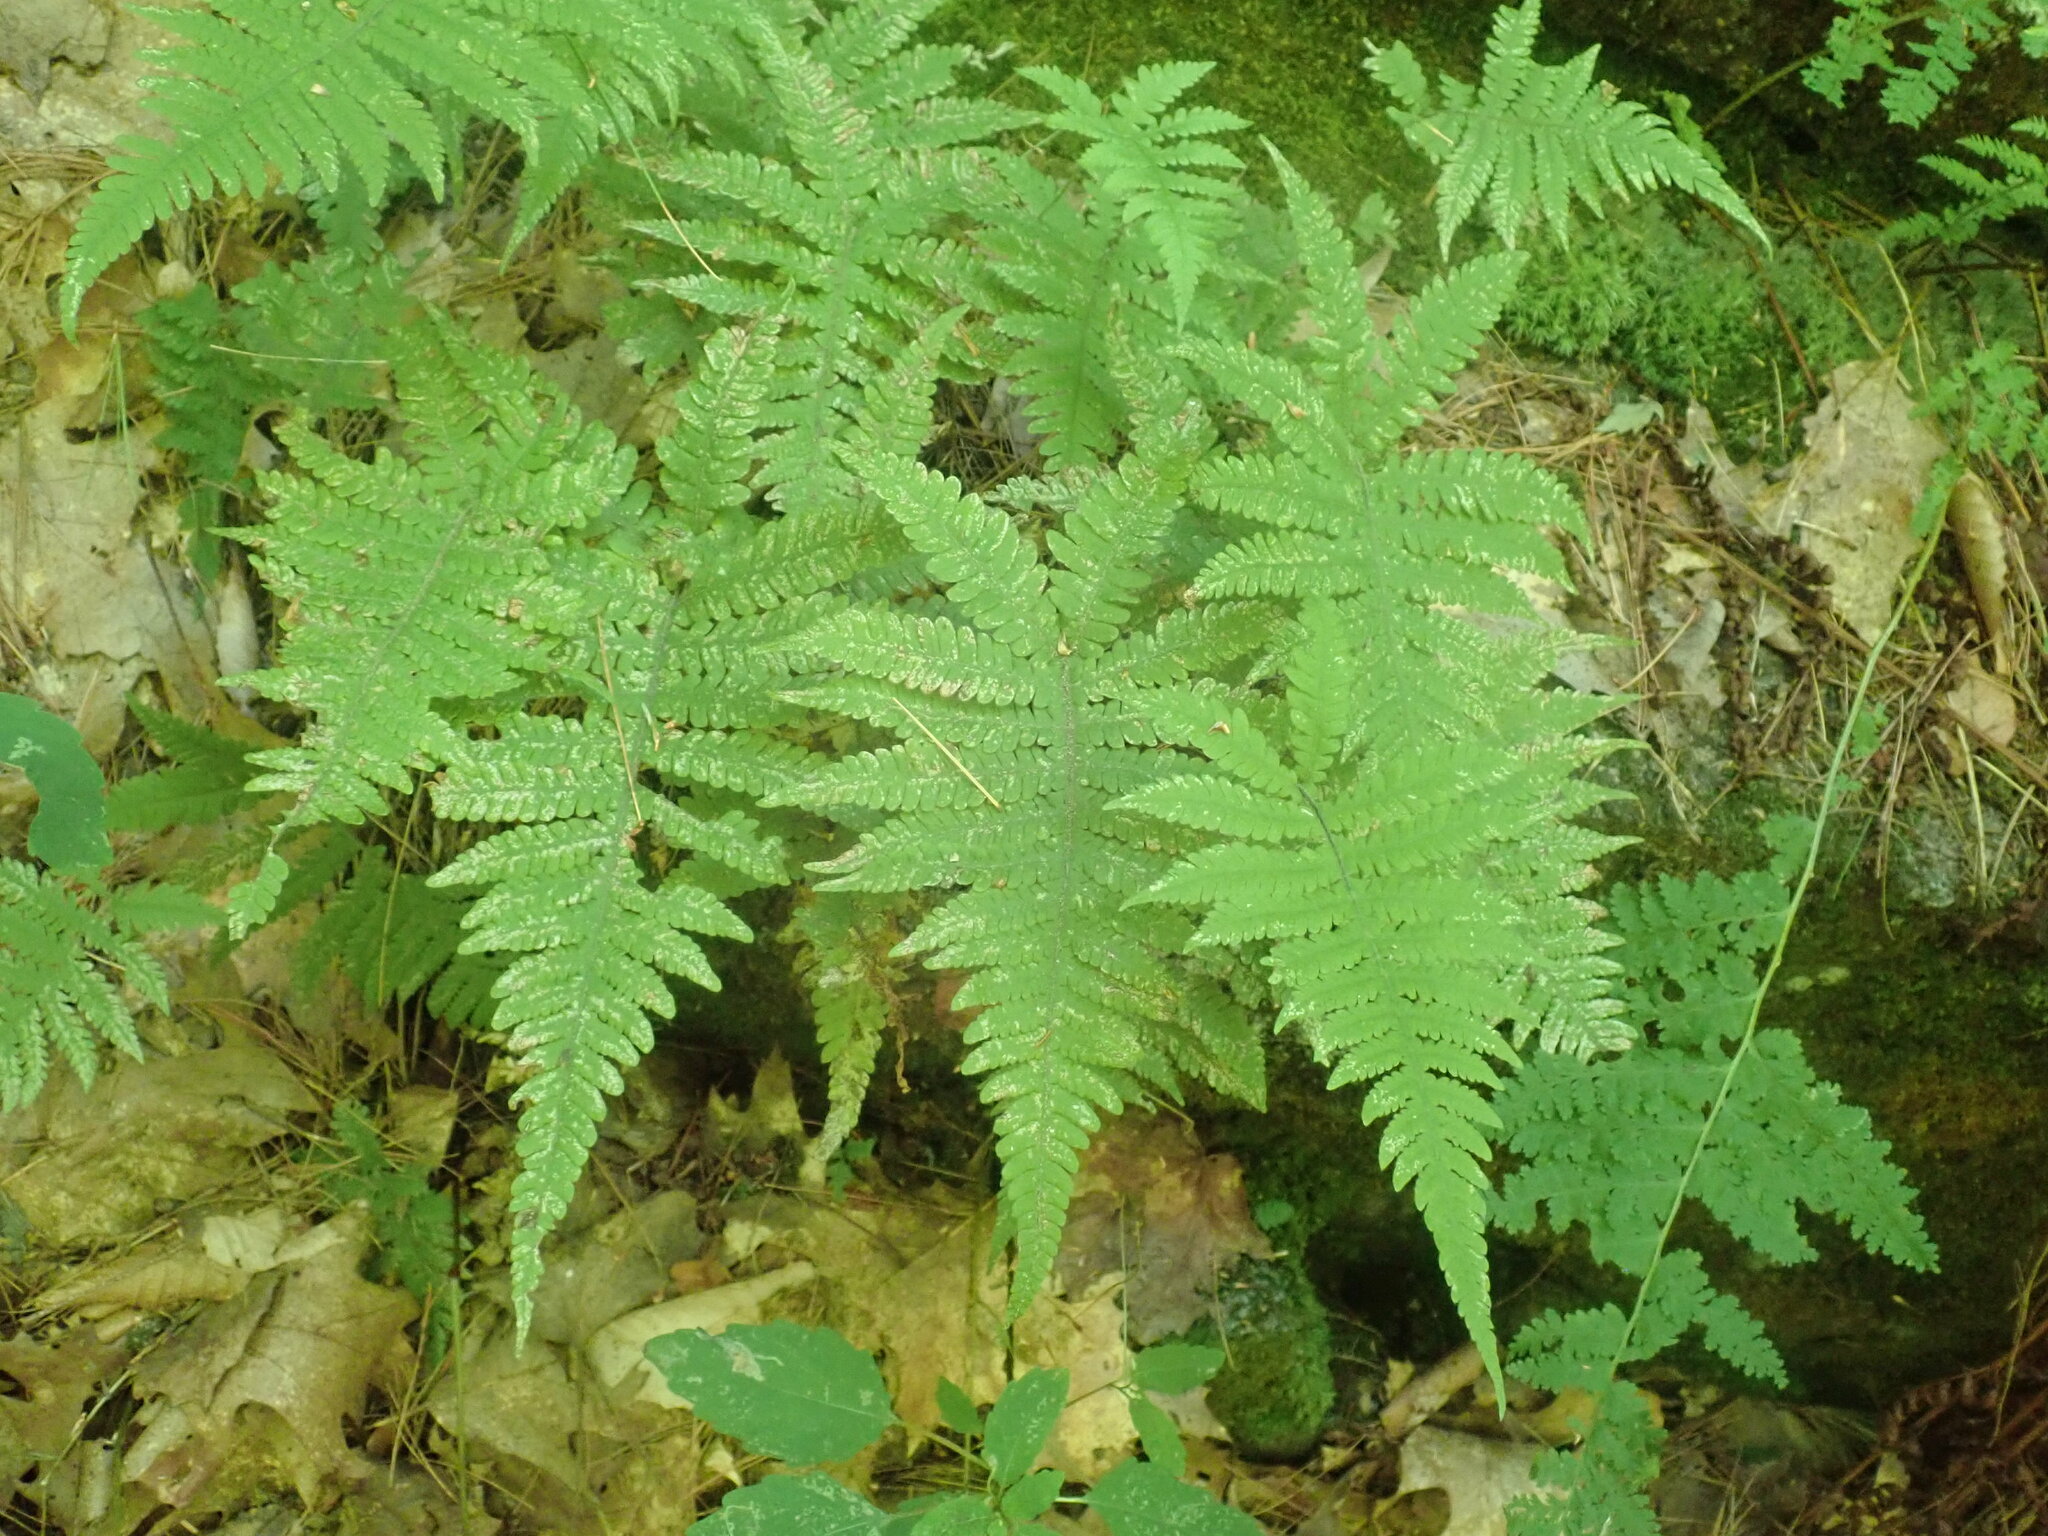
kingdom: Plantae
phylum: Tracheophyta
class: Polypodiopsida
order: Polypodiales
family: Thelypteridaceae
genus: Phegopteris
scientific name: Phegopteris connectilis
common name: Beech fern
